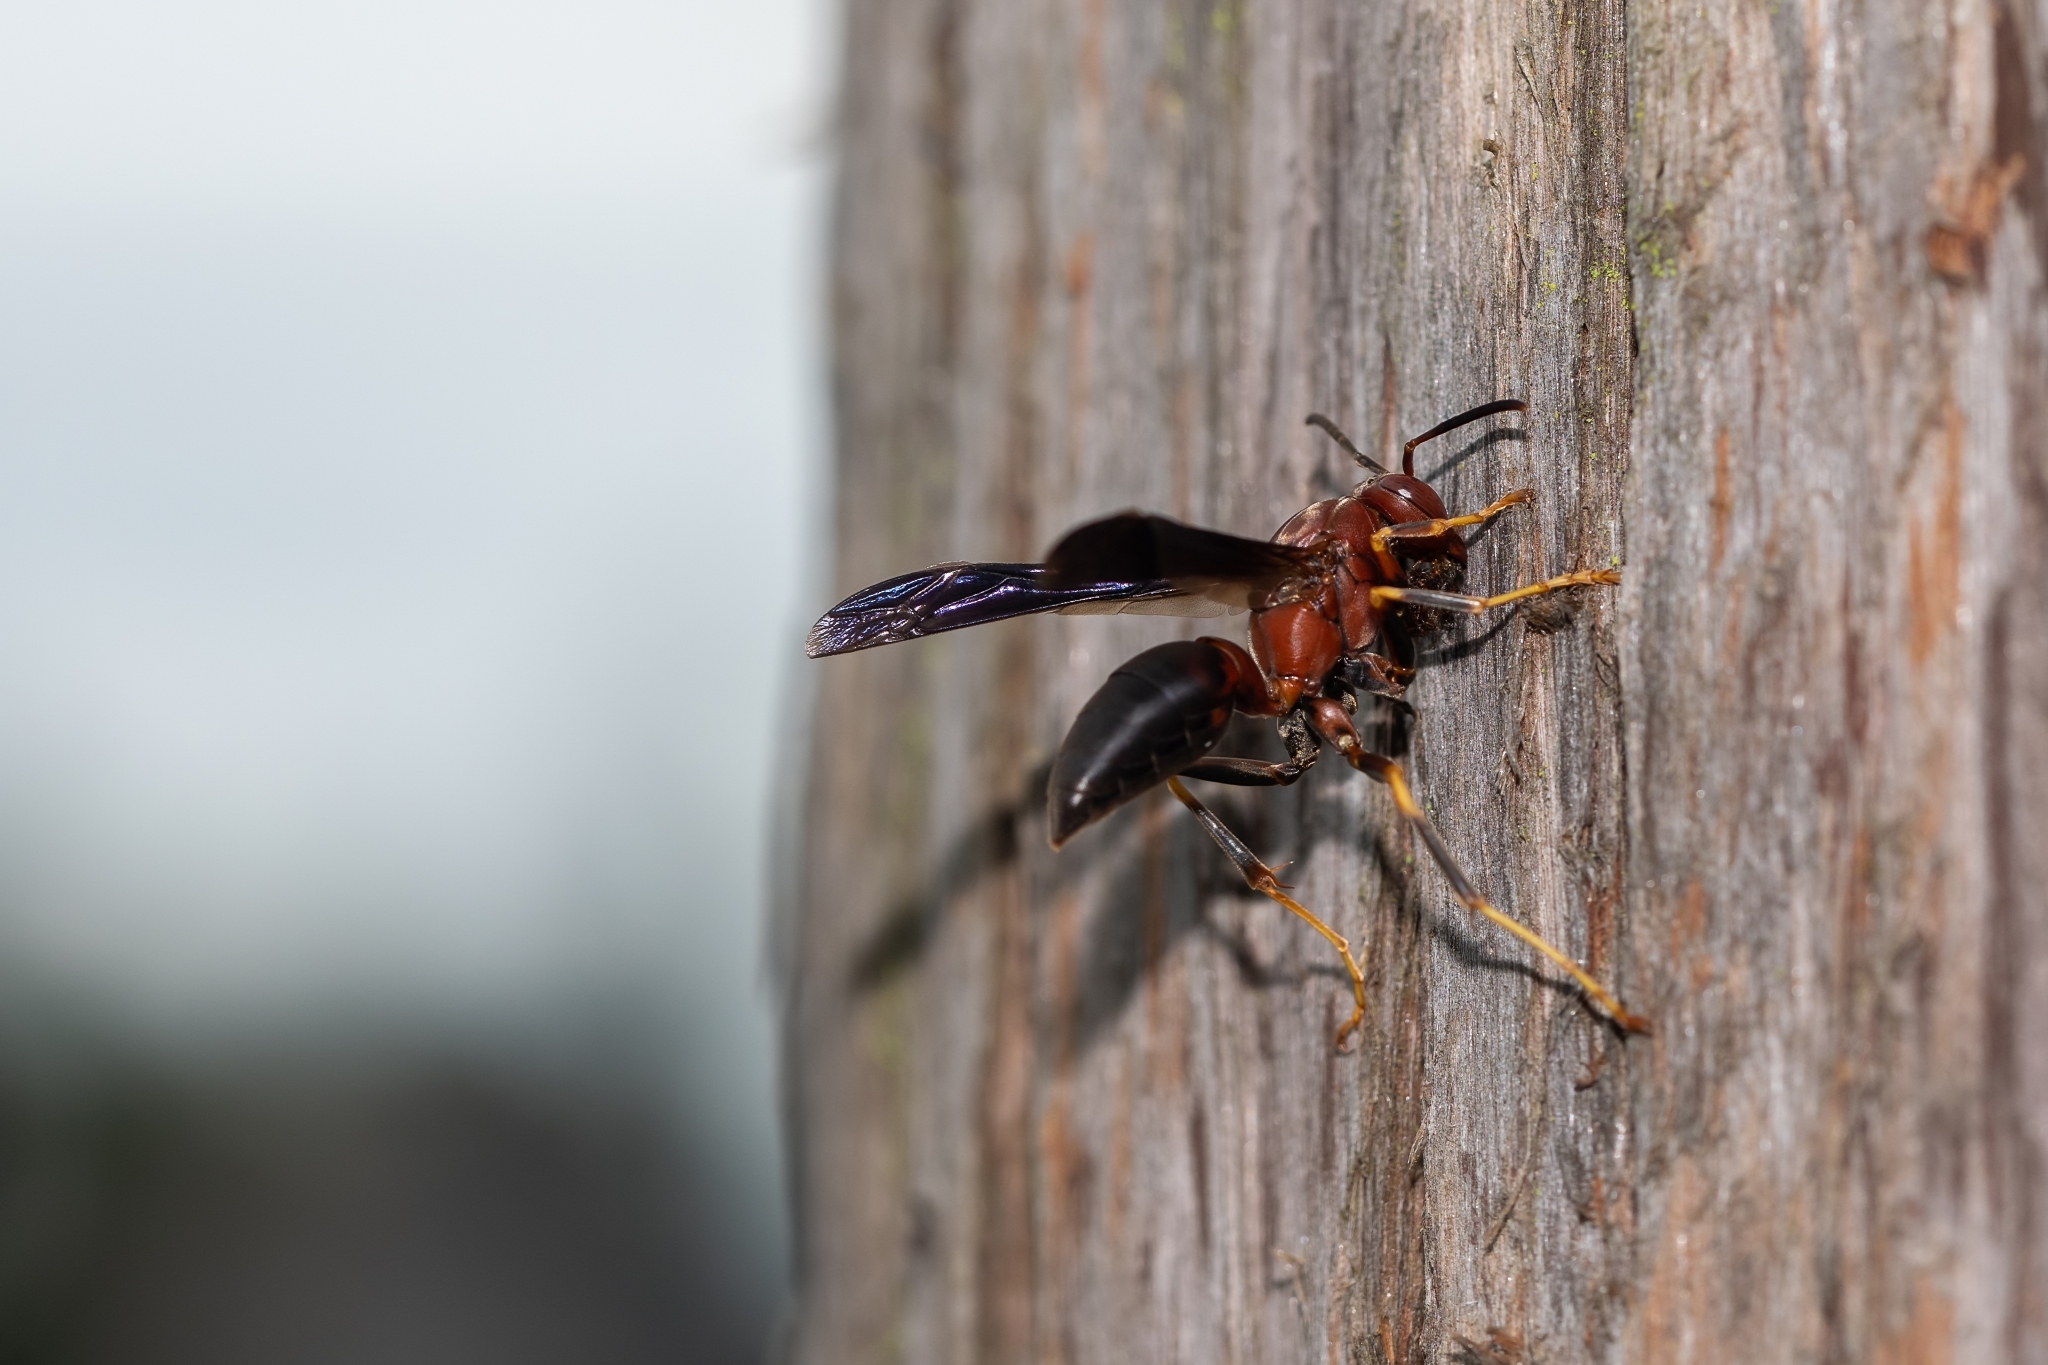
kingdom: Animalia
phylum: Arthropoda
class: Insecta
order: Hymenoptera
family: Eumenidae
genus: Polistes
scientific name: Polistes metricus
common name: Metric paper wasp
